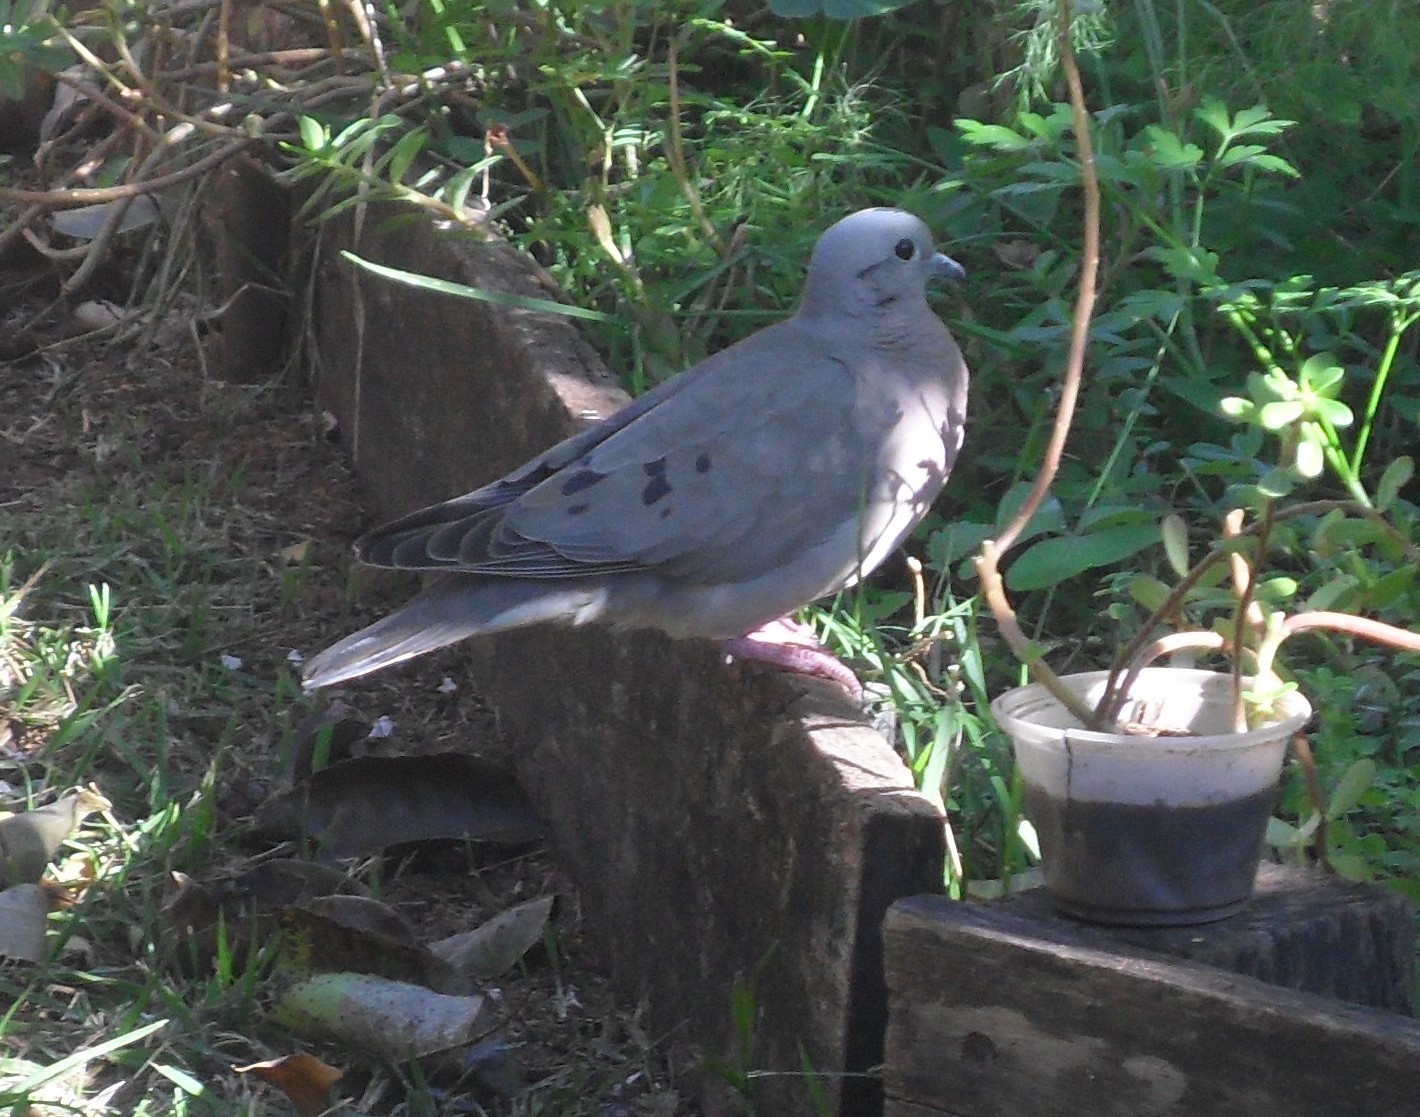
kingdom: Animalia
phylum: Chordata
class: Aves
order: Columbiformes
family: Columbidae
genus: Zenaida
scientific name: Zenaida auriculata
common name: Eared dove
